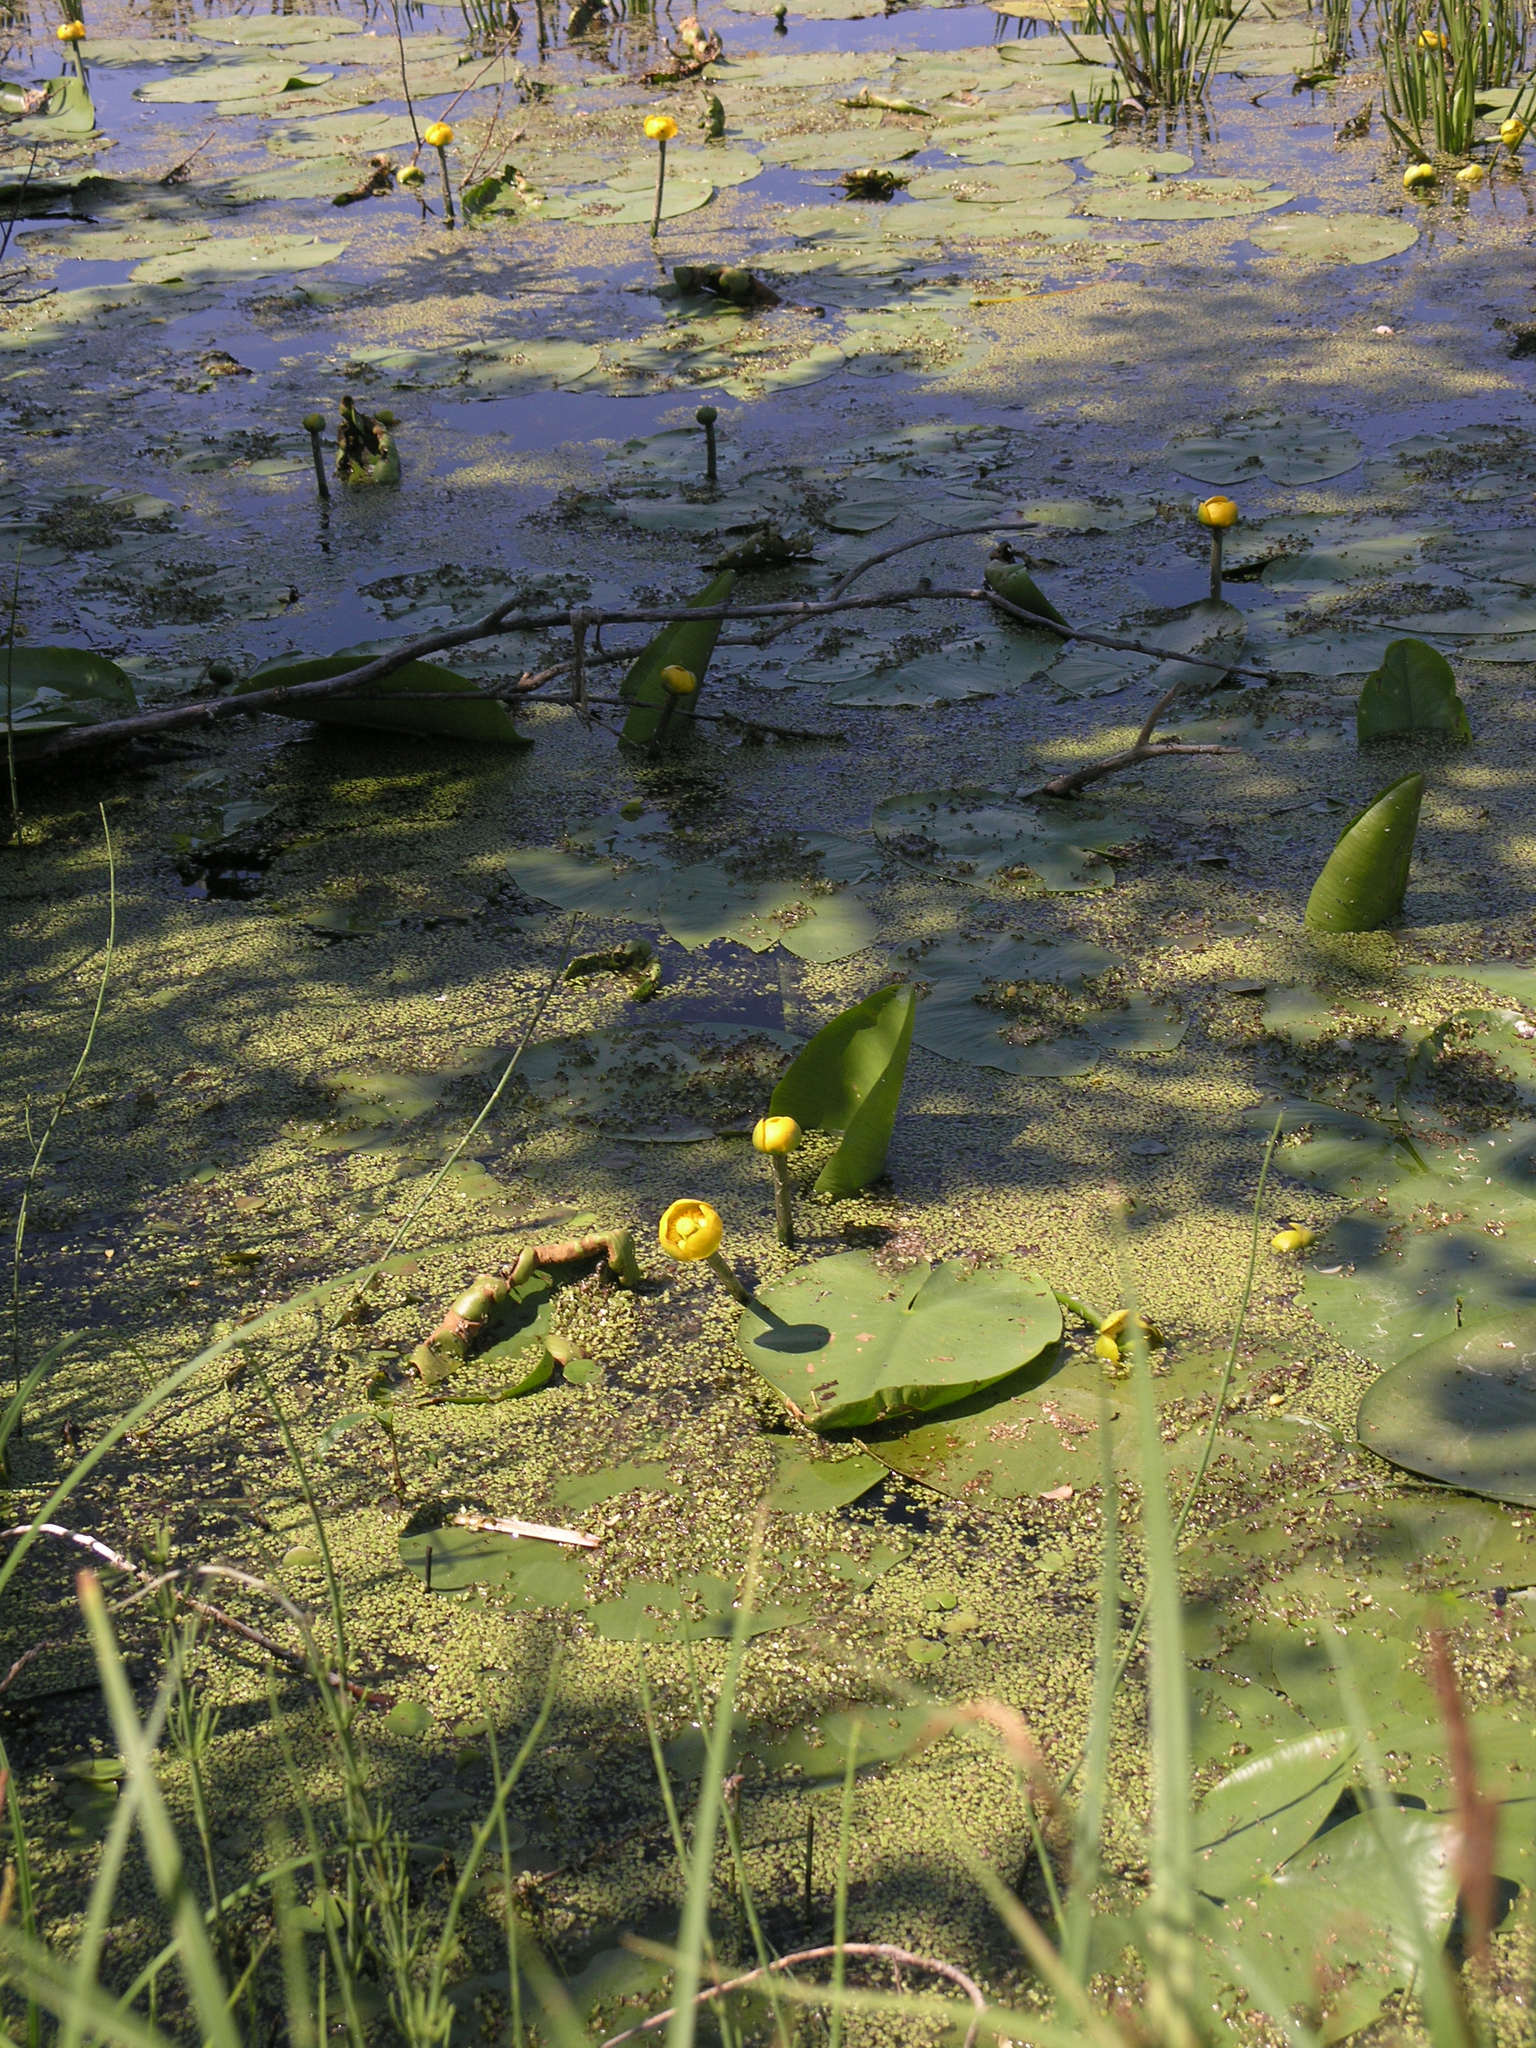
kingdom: Plantae
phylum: Tracheophyta
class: Liliopsida
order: Alismatales
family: Hydrocharitaceae
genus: Stratiotes
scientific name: Stratiotes aloides
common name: Water-soldier
